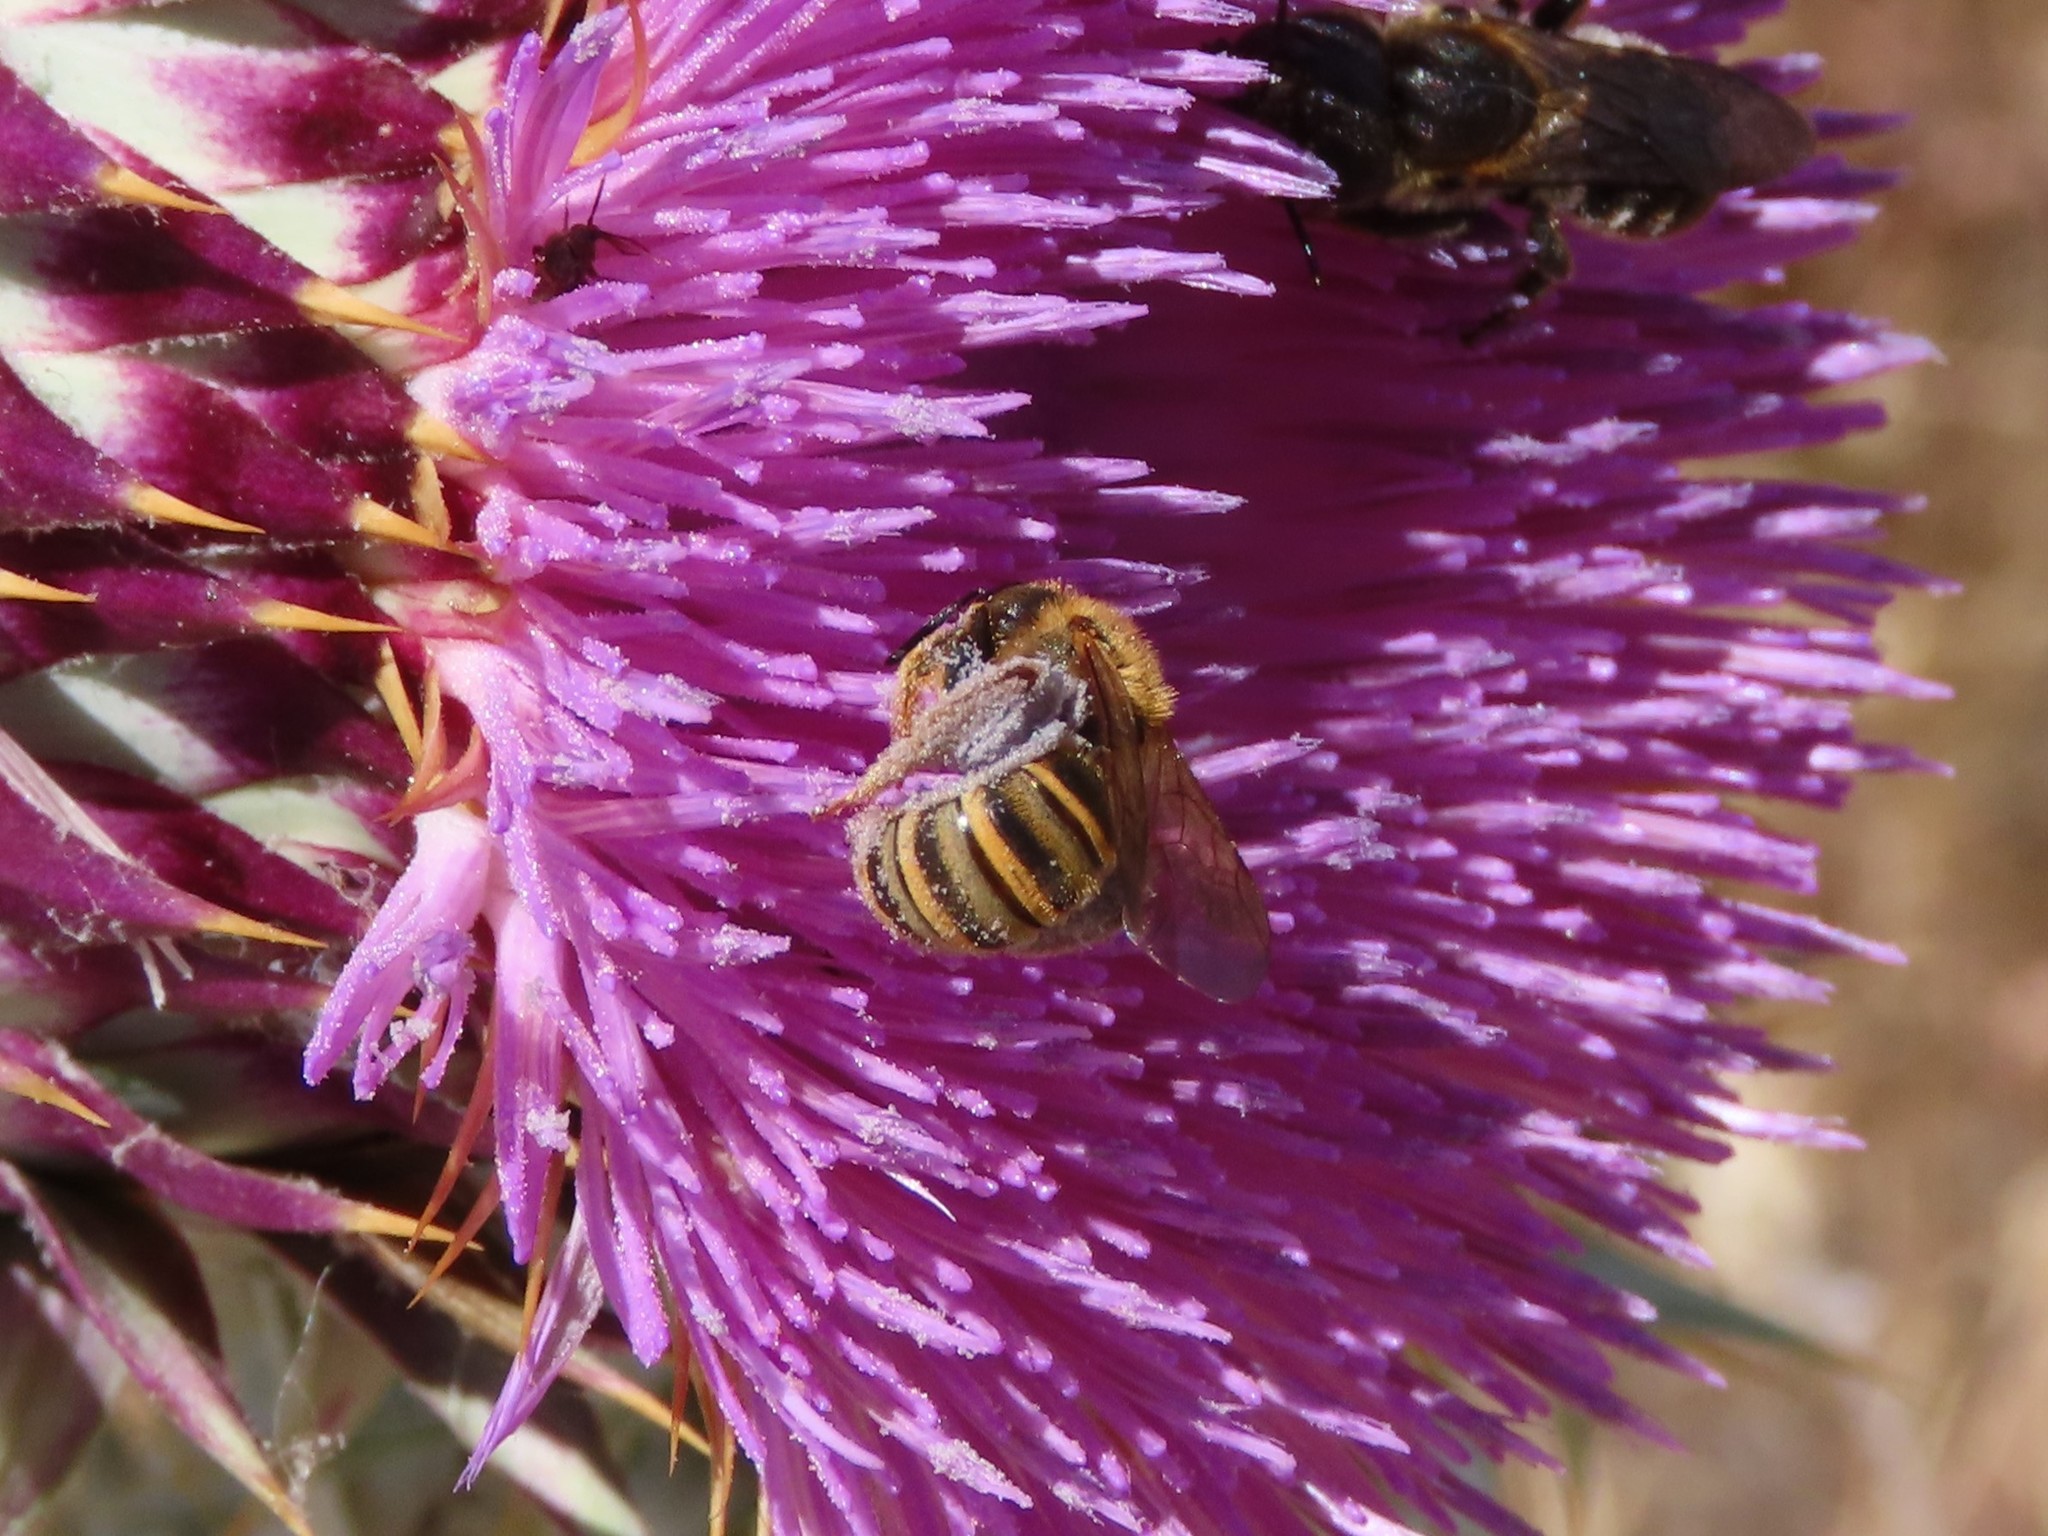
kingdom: Animalia
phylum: Arthropoda
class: Insecta
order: Hymenoptera
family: Halictidae
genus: Halictus
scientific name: Halictus scabiosae
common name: Great banded furrow bee
